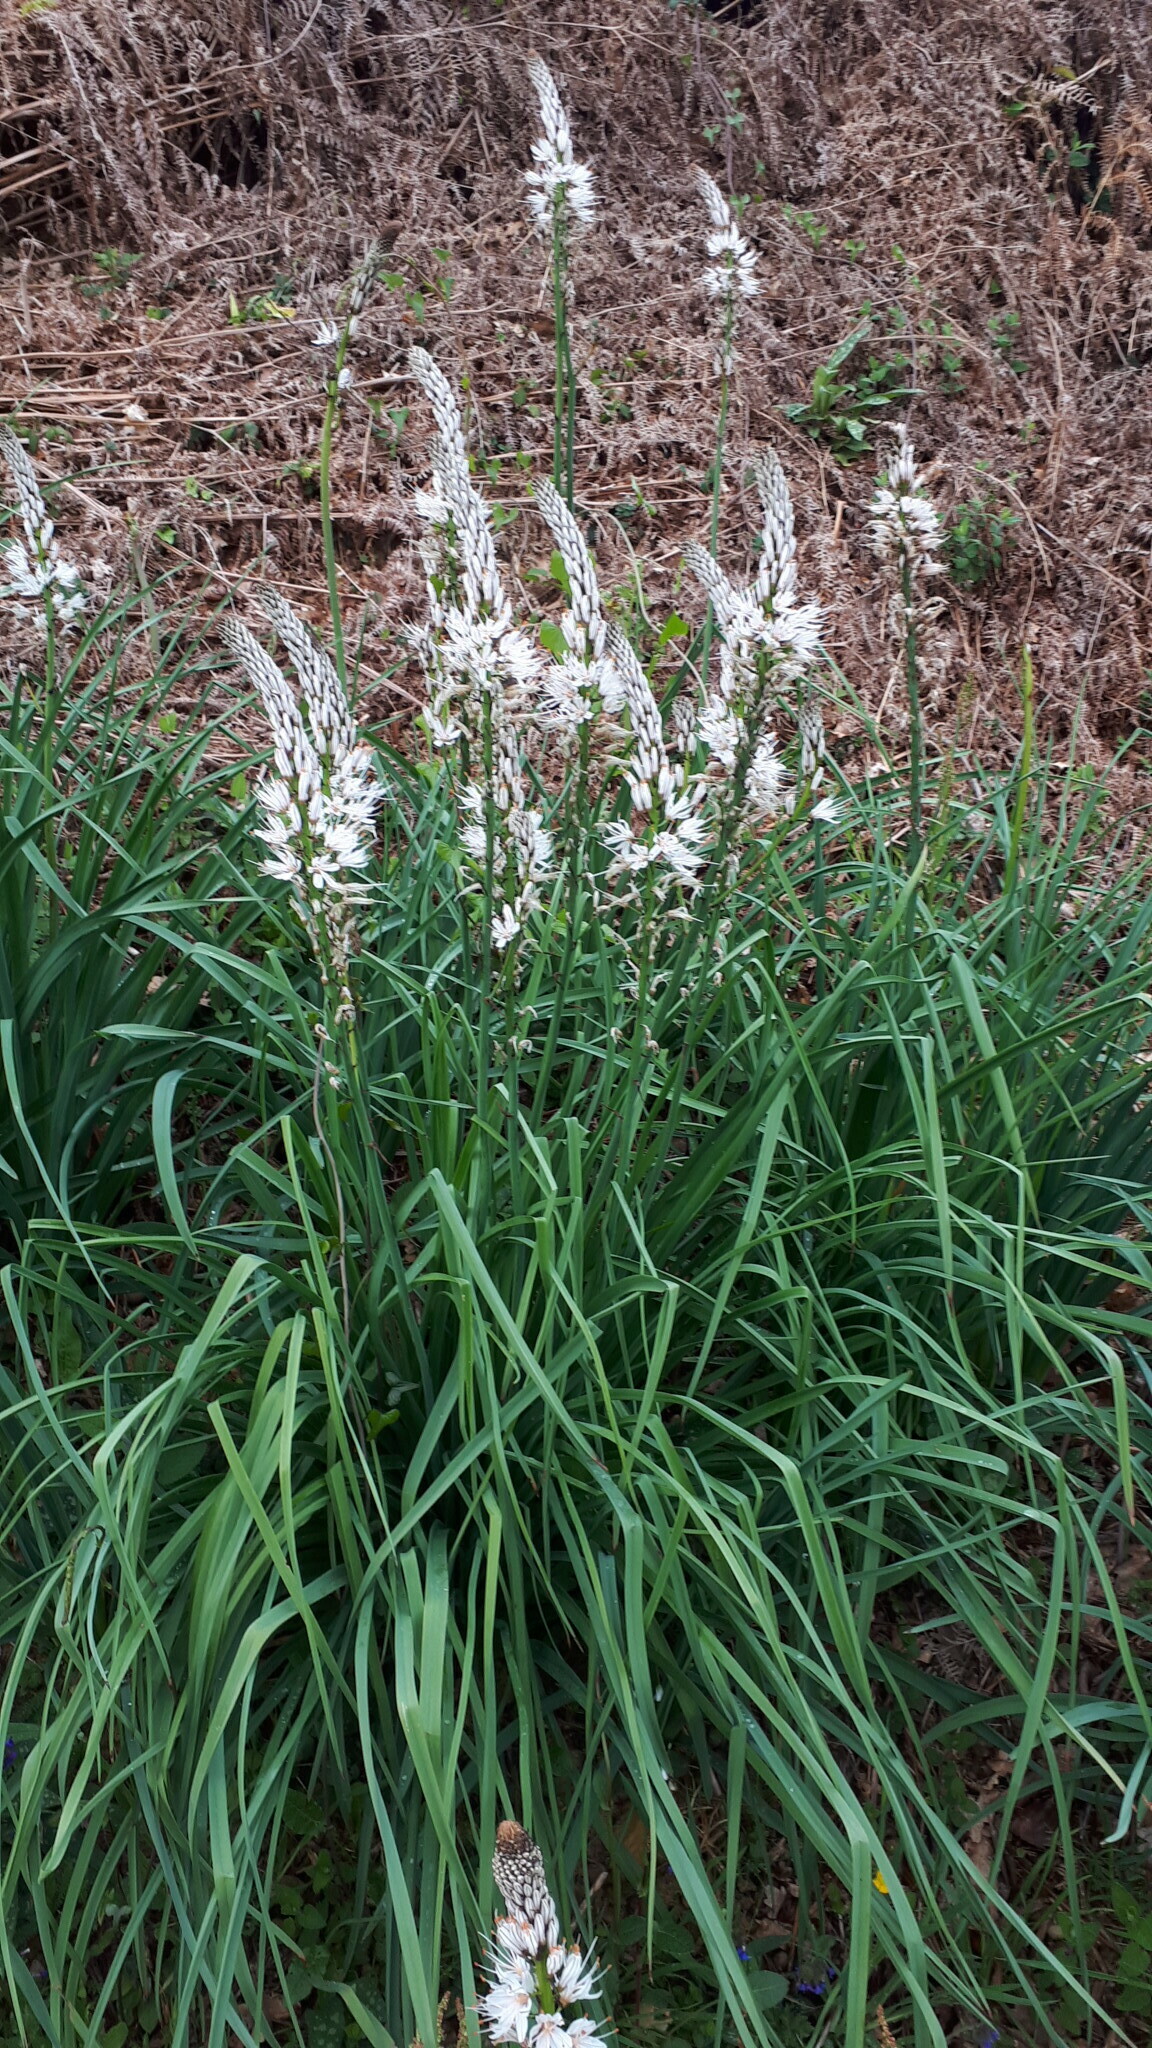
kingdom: Plantae
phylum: Tracheophyta
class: Liliopsida
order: Asparagales
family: Asphodelaceae
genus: Asphodelus
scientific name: Asphodelus albus
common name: White asphodel
